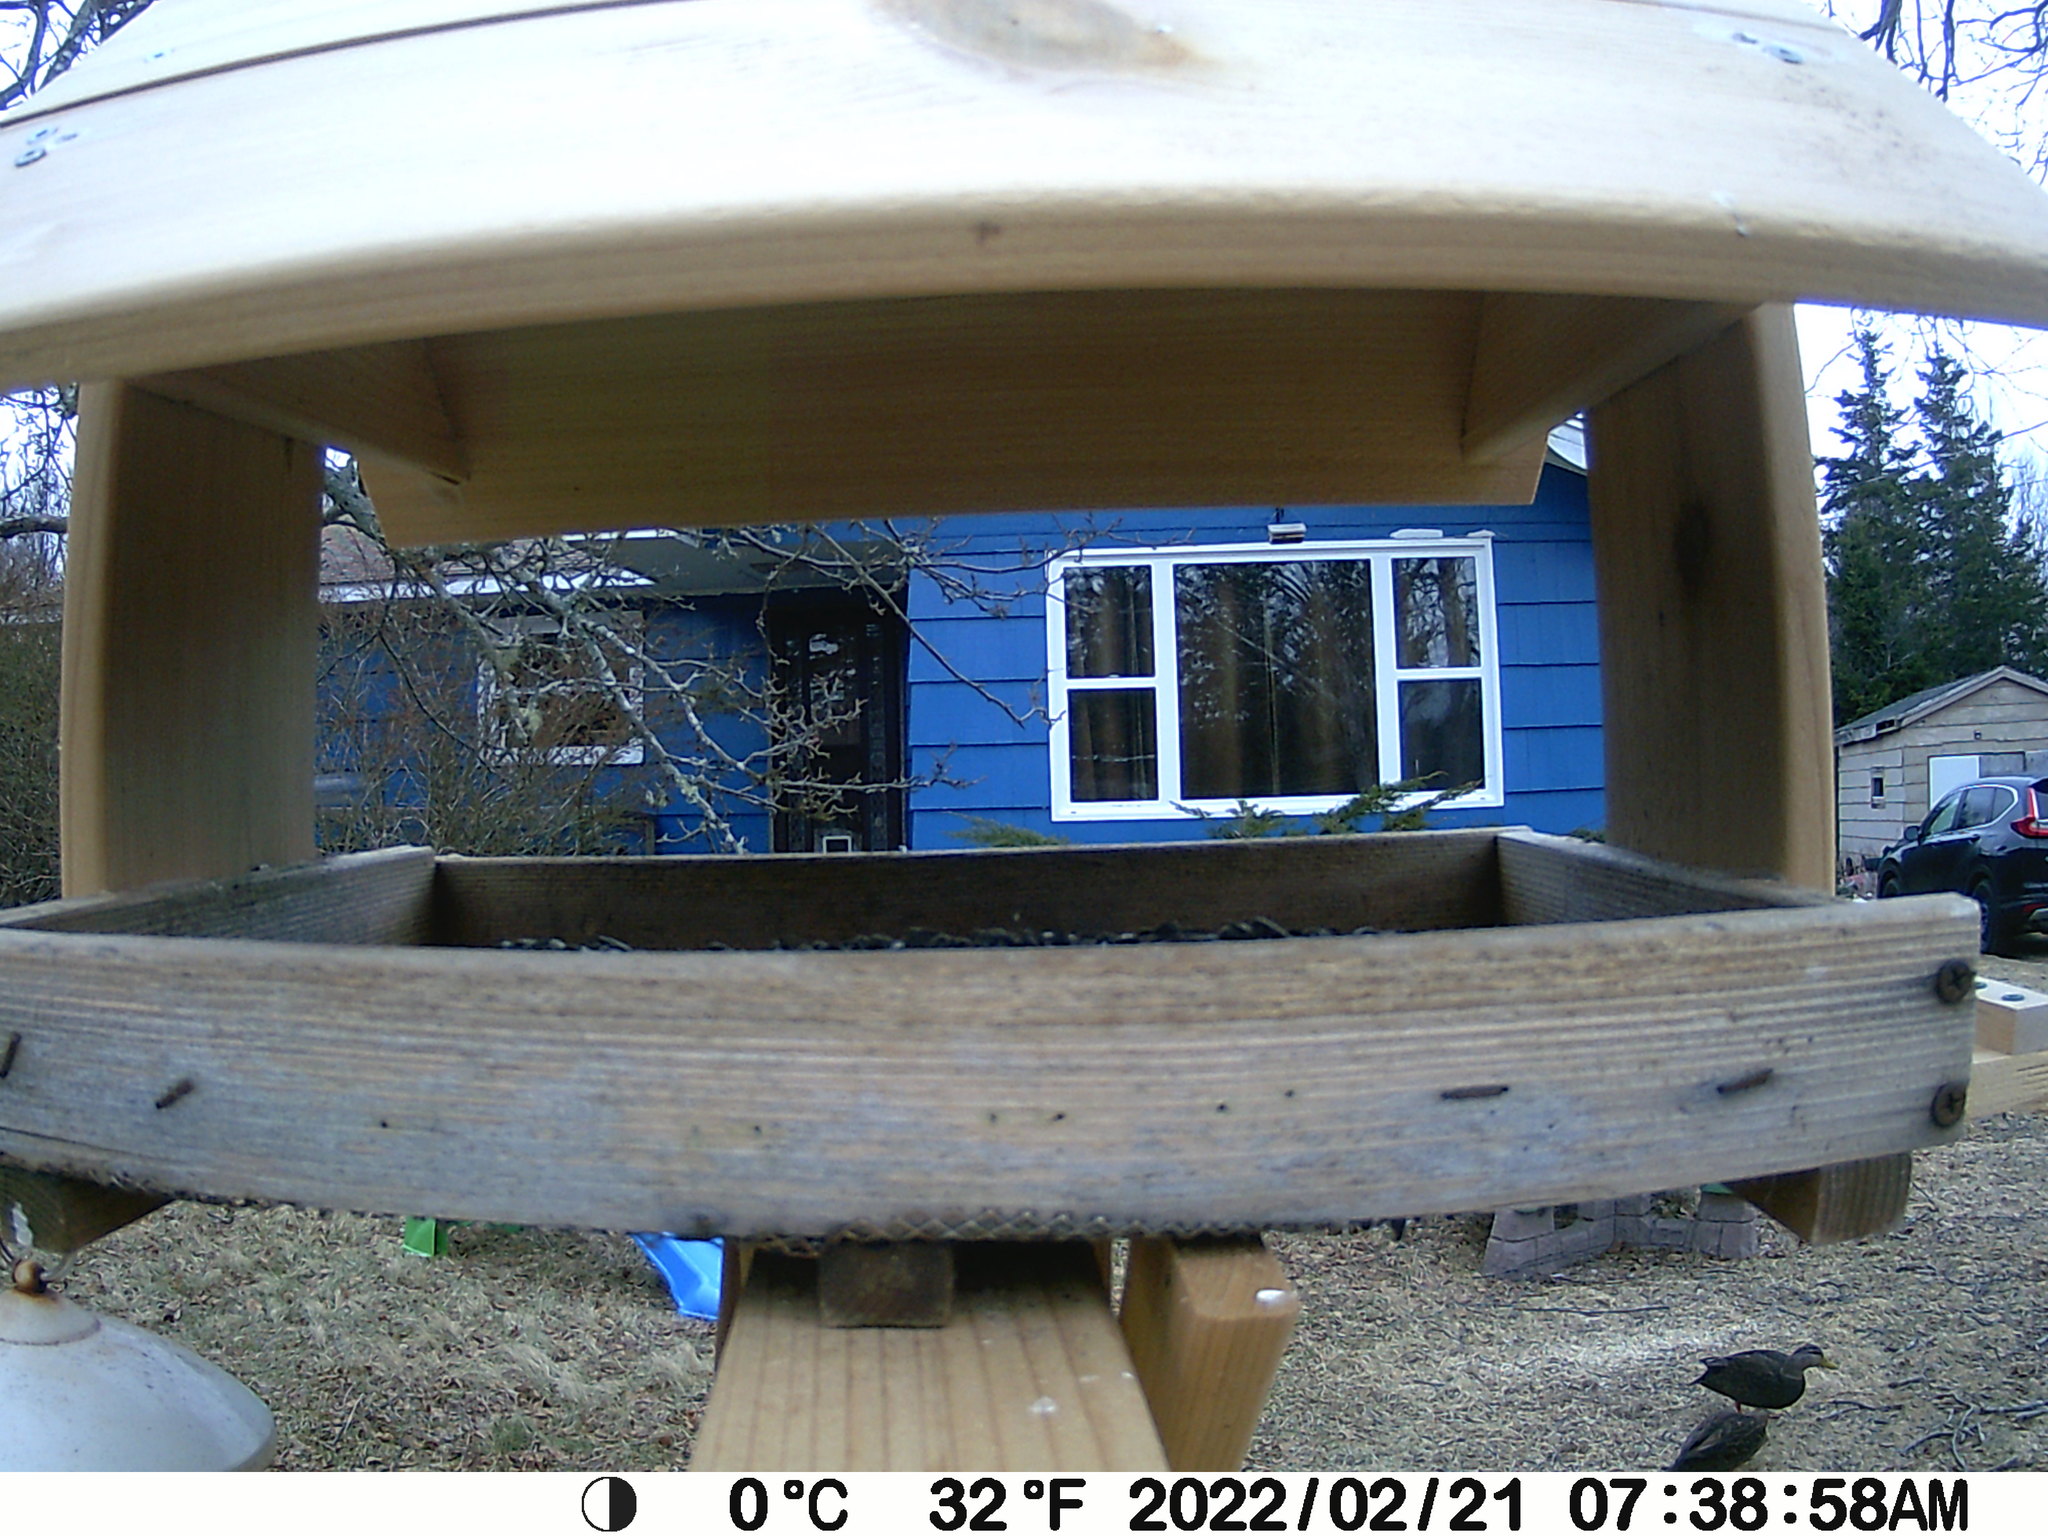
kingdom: Animalia
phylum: Chordata
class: Aves
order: Anseriformes
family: Anatidae
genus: Anas
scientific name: Anas rubripes
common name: American black duck
